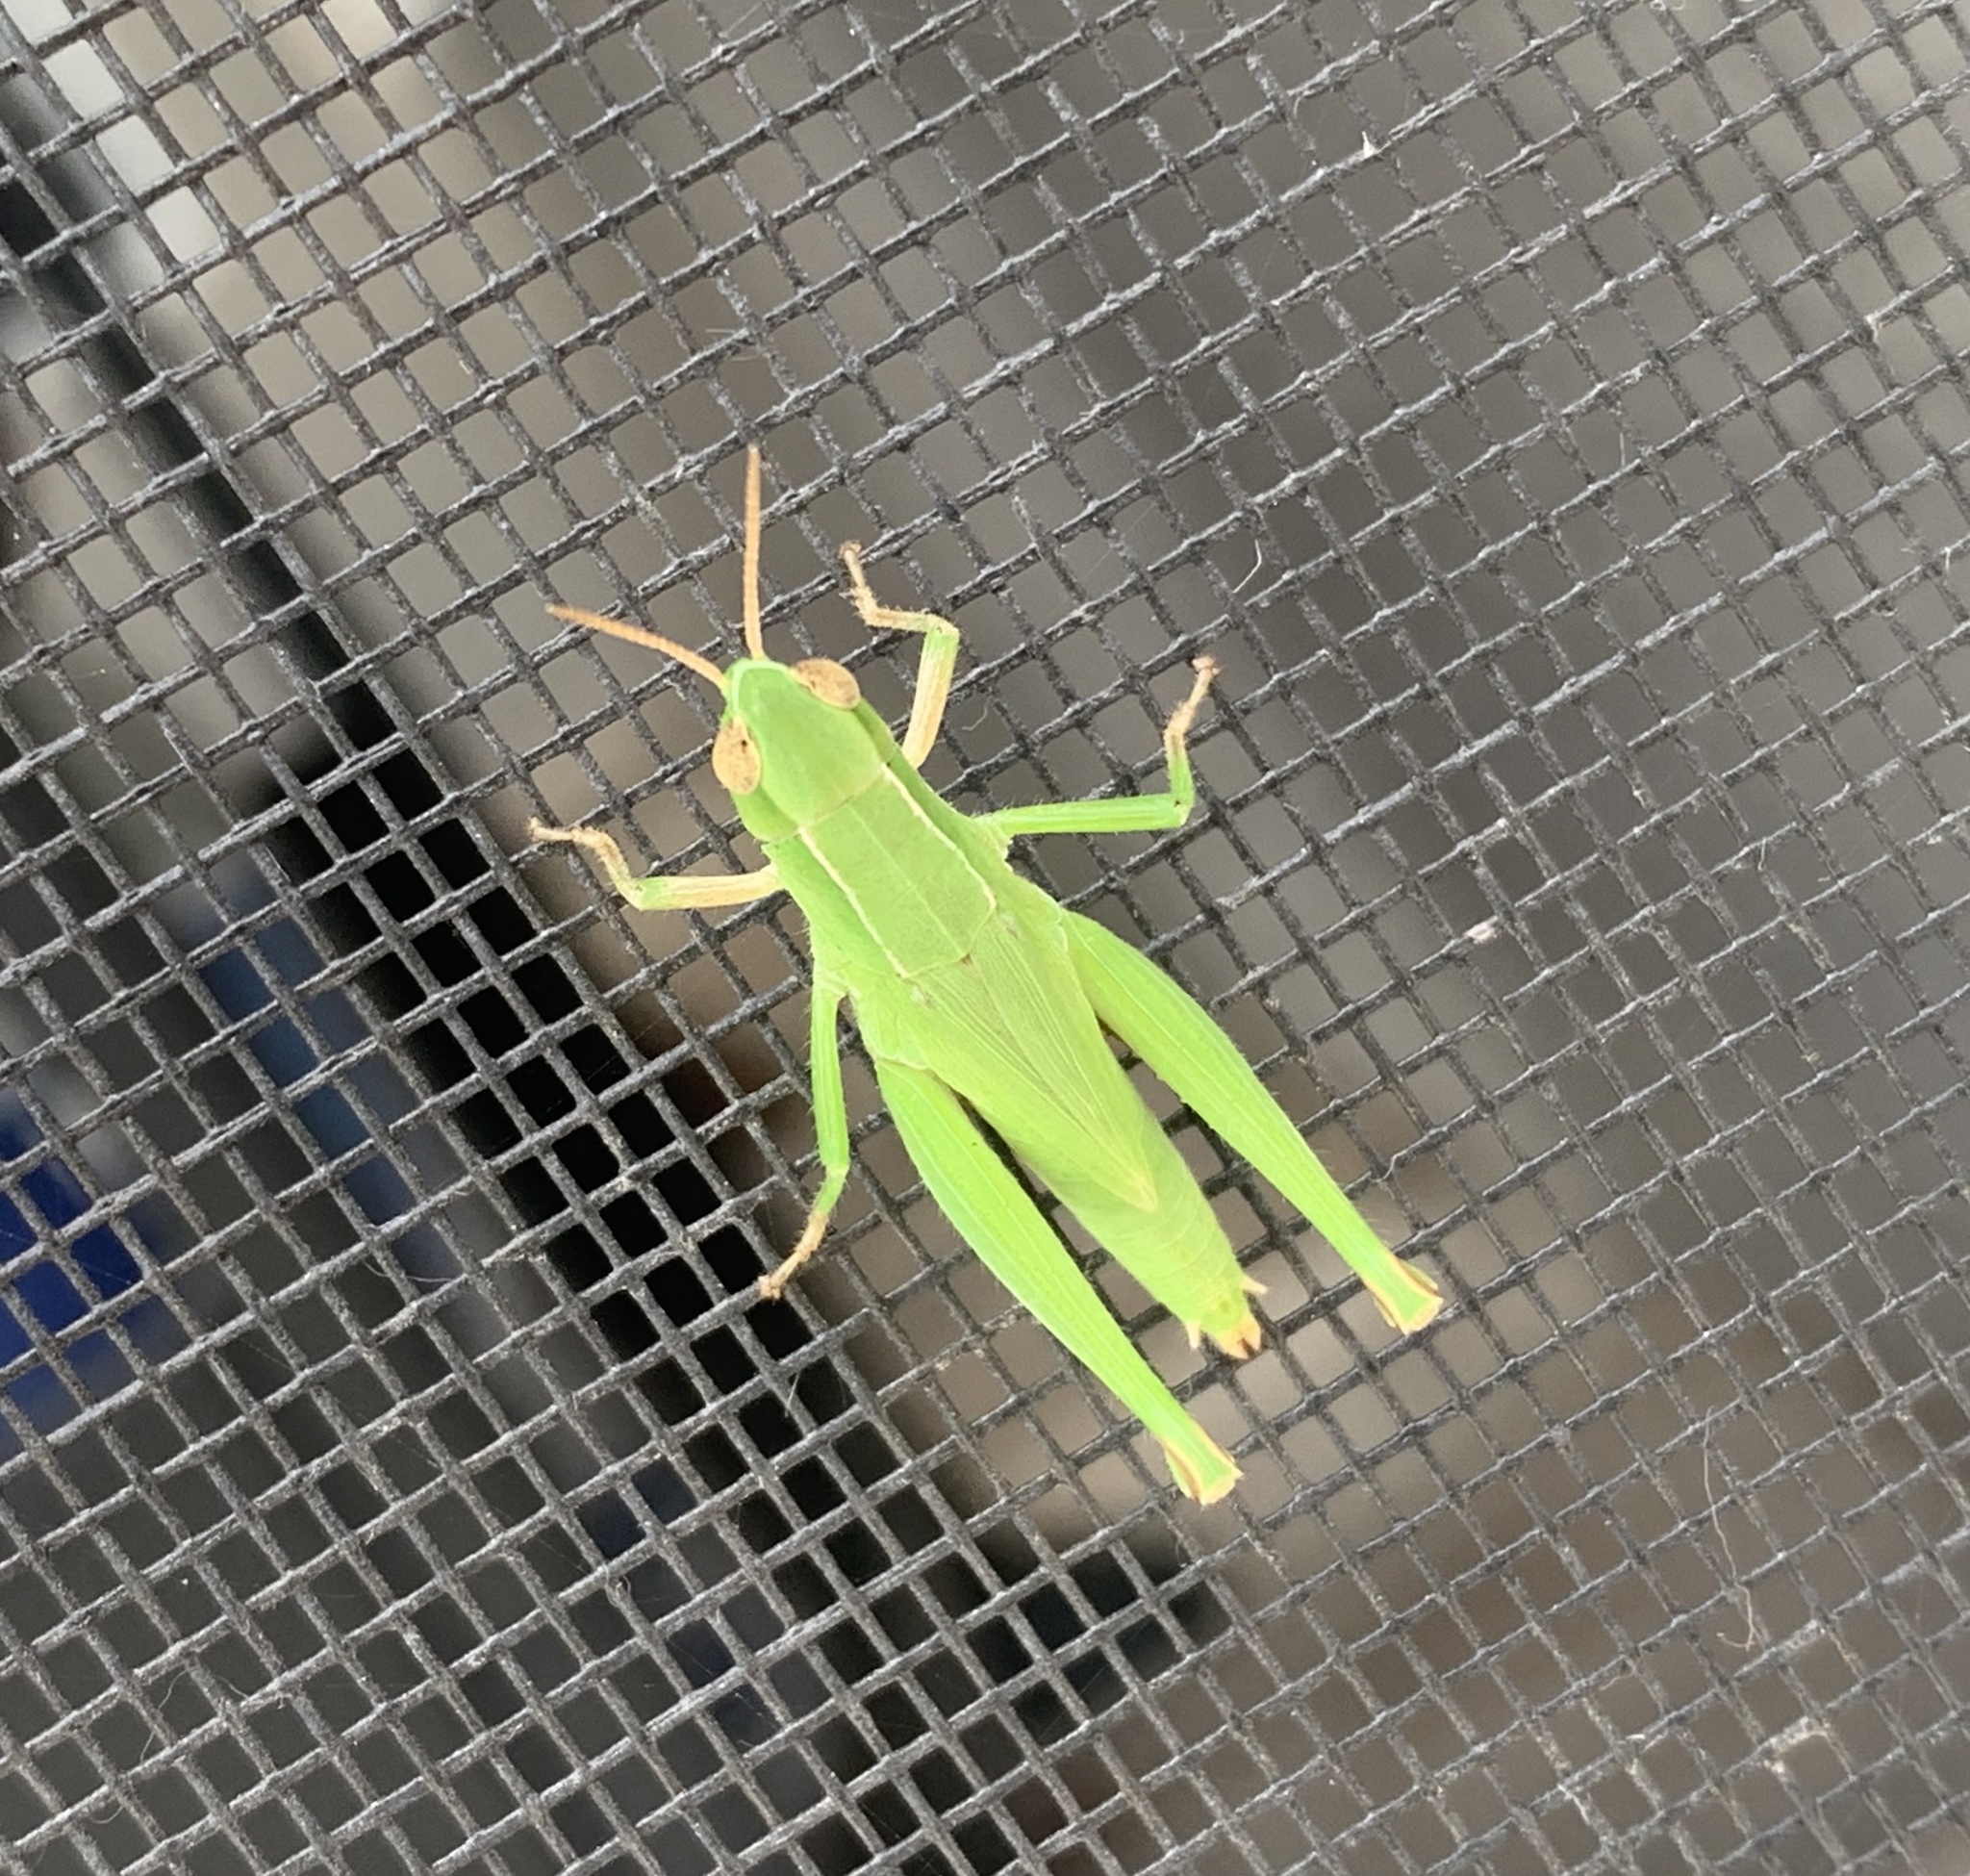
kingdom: Animalia
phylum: Arthropoda
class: Insecta
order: Orthoptera
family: Acrididae
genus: Dichromorpha
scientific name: Dichromorpha viridis
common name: Short-winged green grasshopper
